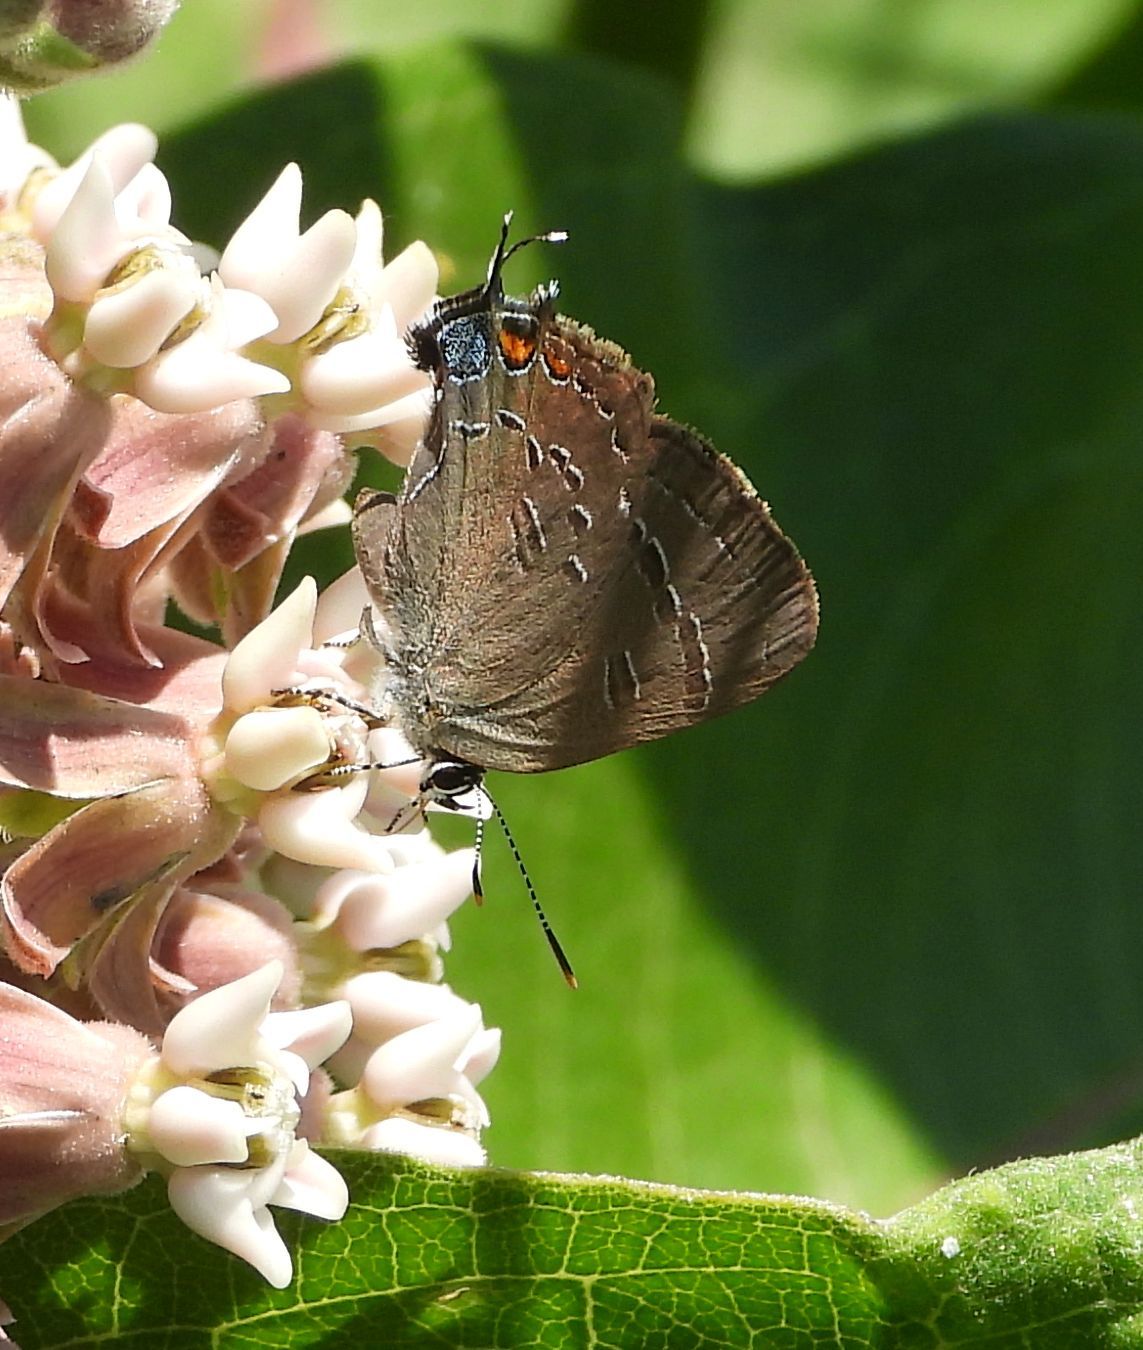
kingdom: Animalia
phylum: Arthropoda
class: Insecta
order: Lepidoptera
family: Lycaenidae
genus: Satyrium
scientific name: Satyrium calanus
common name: Banded hairstreak
